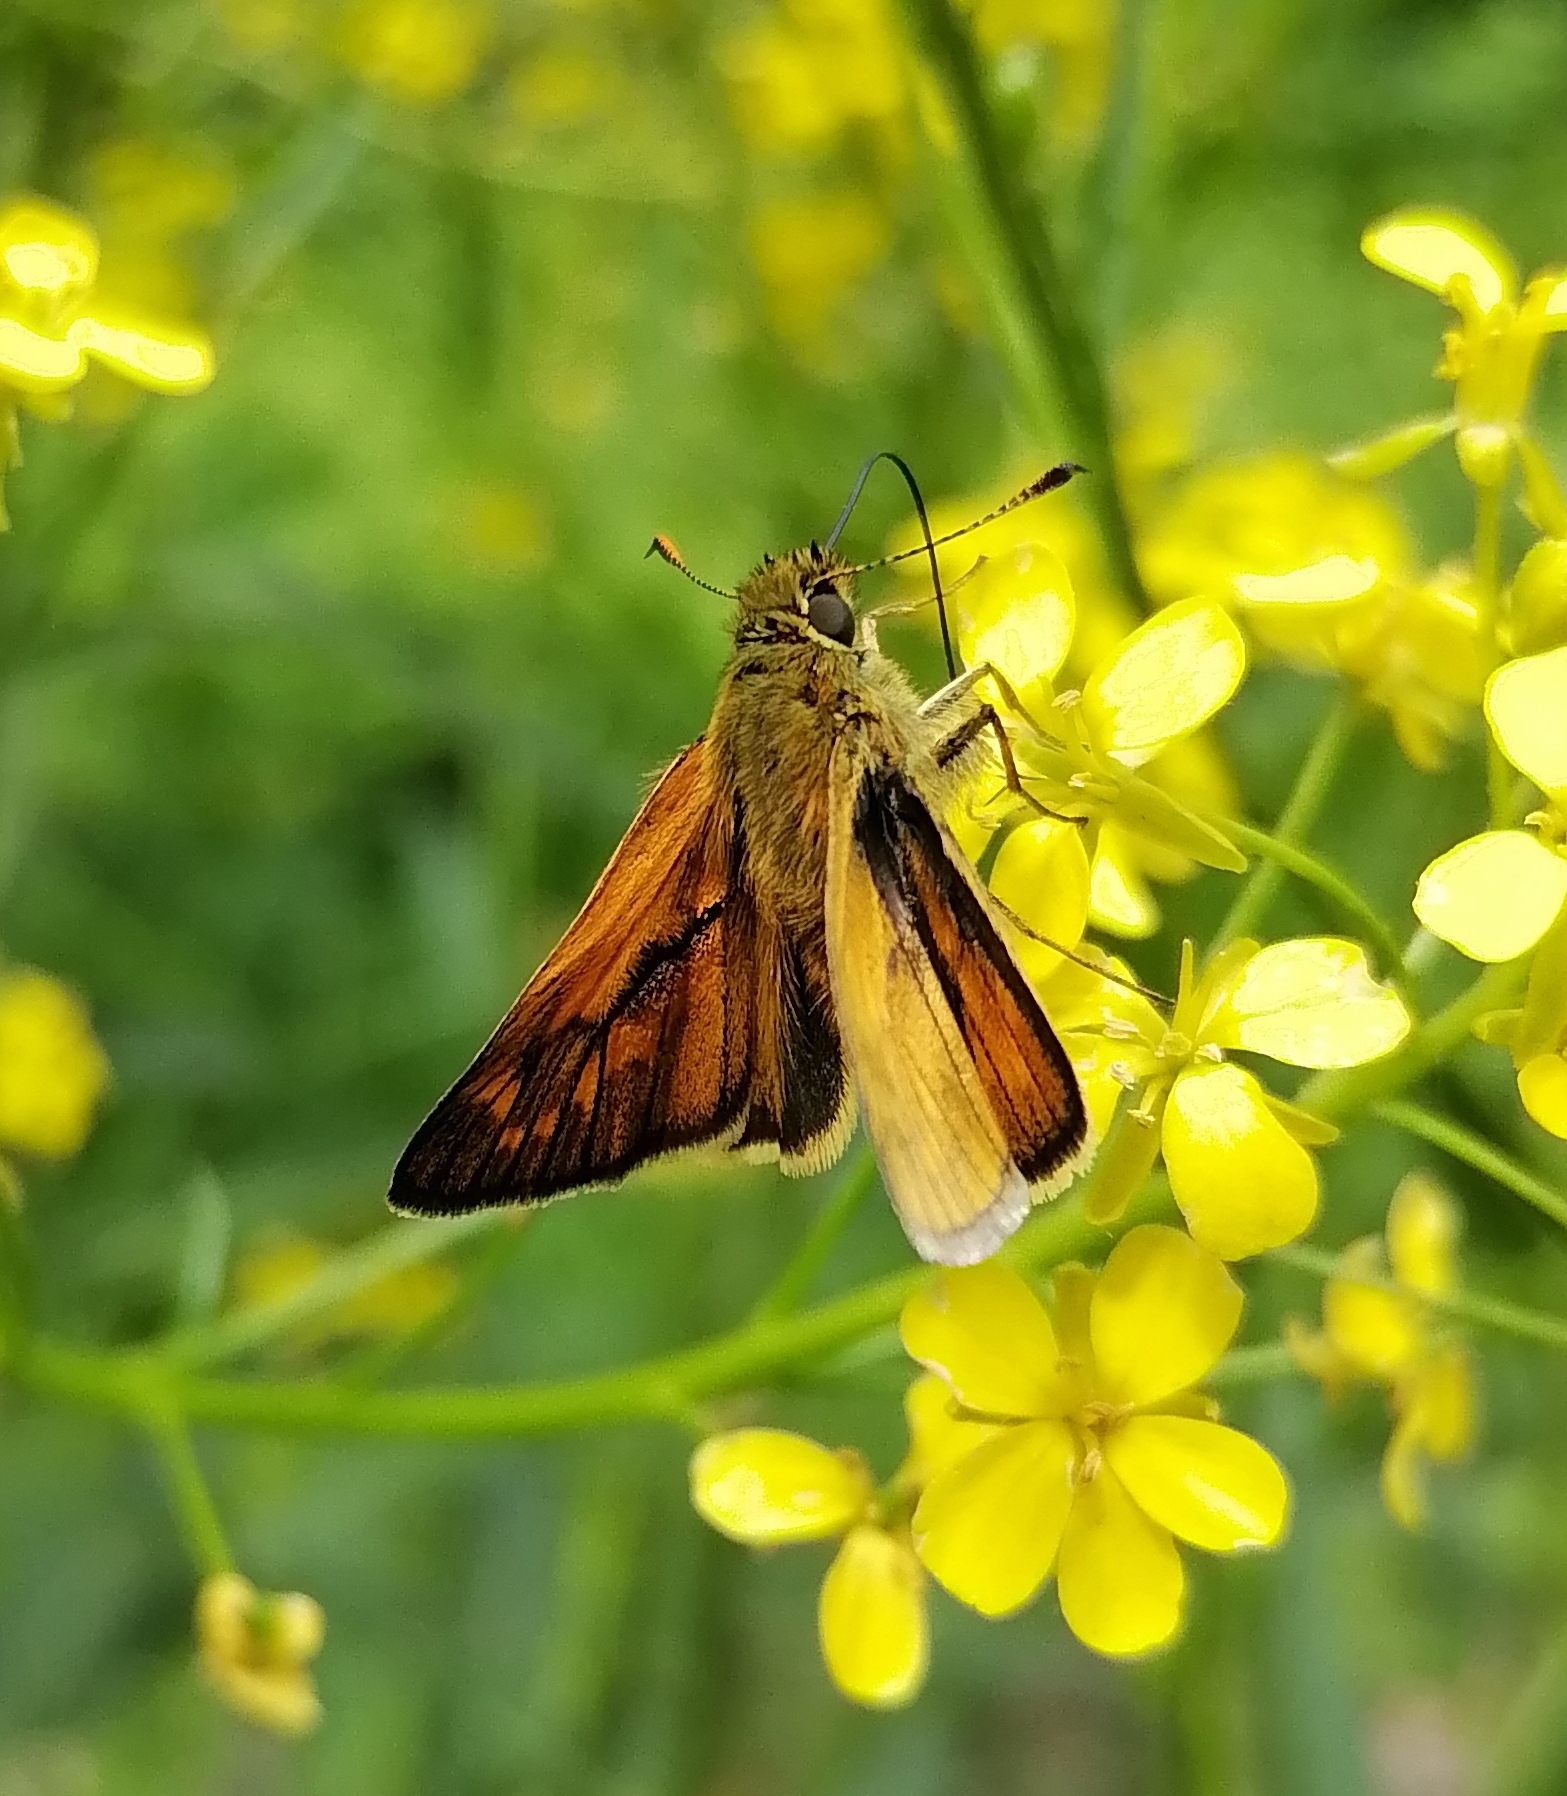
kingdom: Animalia
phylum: Arthropoda
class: Insecta
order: Lepidoptera
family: Hesperiidae
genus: Ochlodes
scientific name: Ochlodes venata
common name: Large skipper
